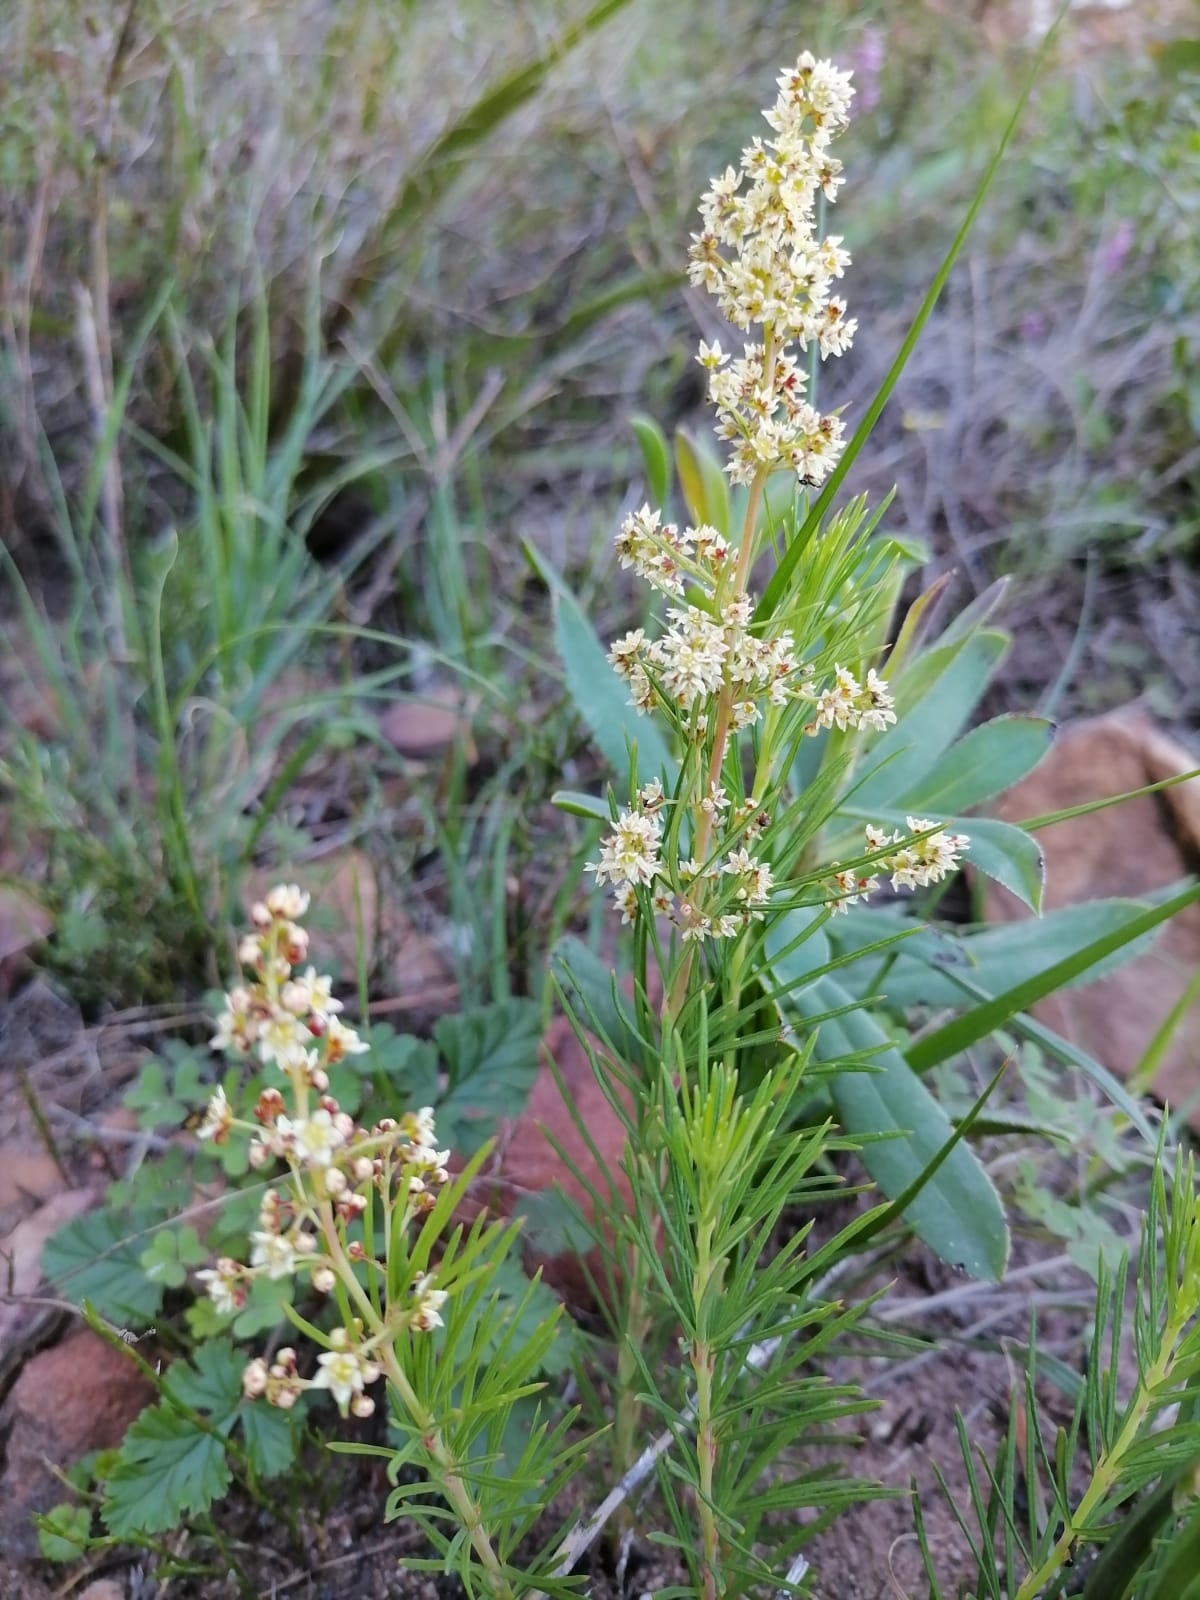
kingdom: Plantae
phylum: Tracheophyta
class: Magnoliopsida
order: Sapindales
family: Anacardiaceae
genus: Searsia
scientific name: Searsia rosmarinifolia
